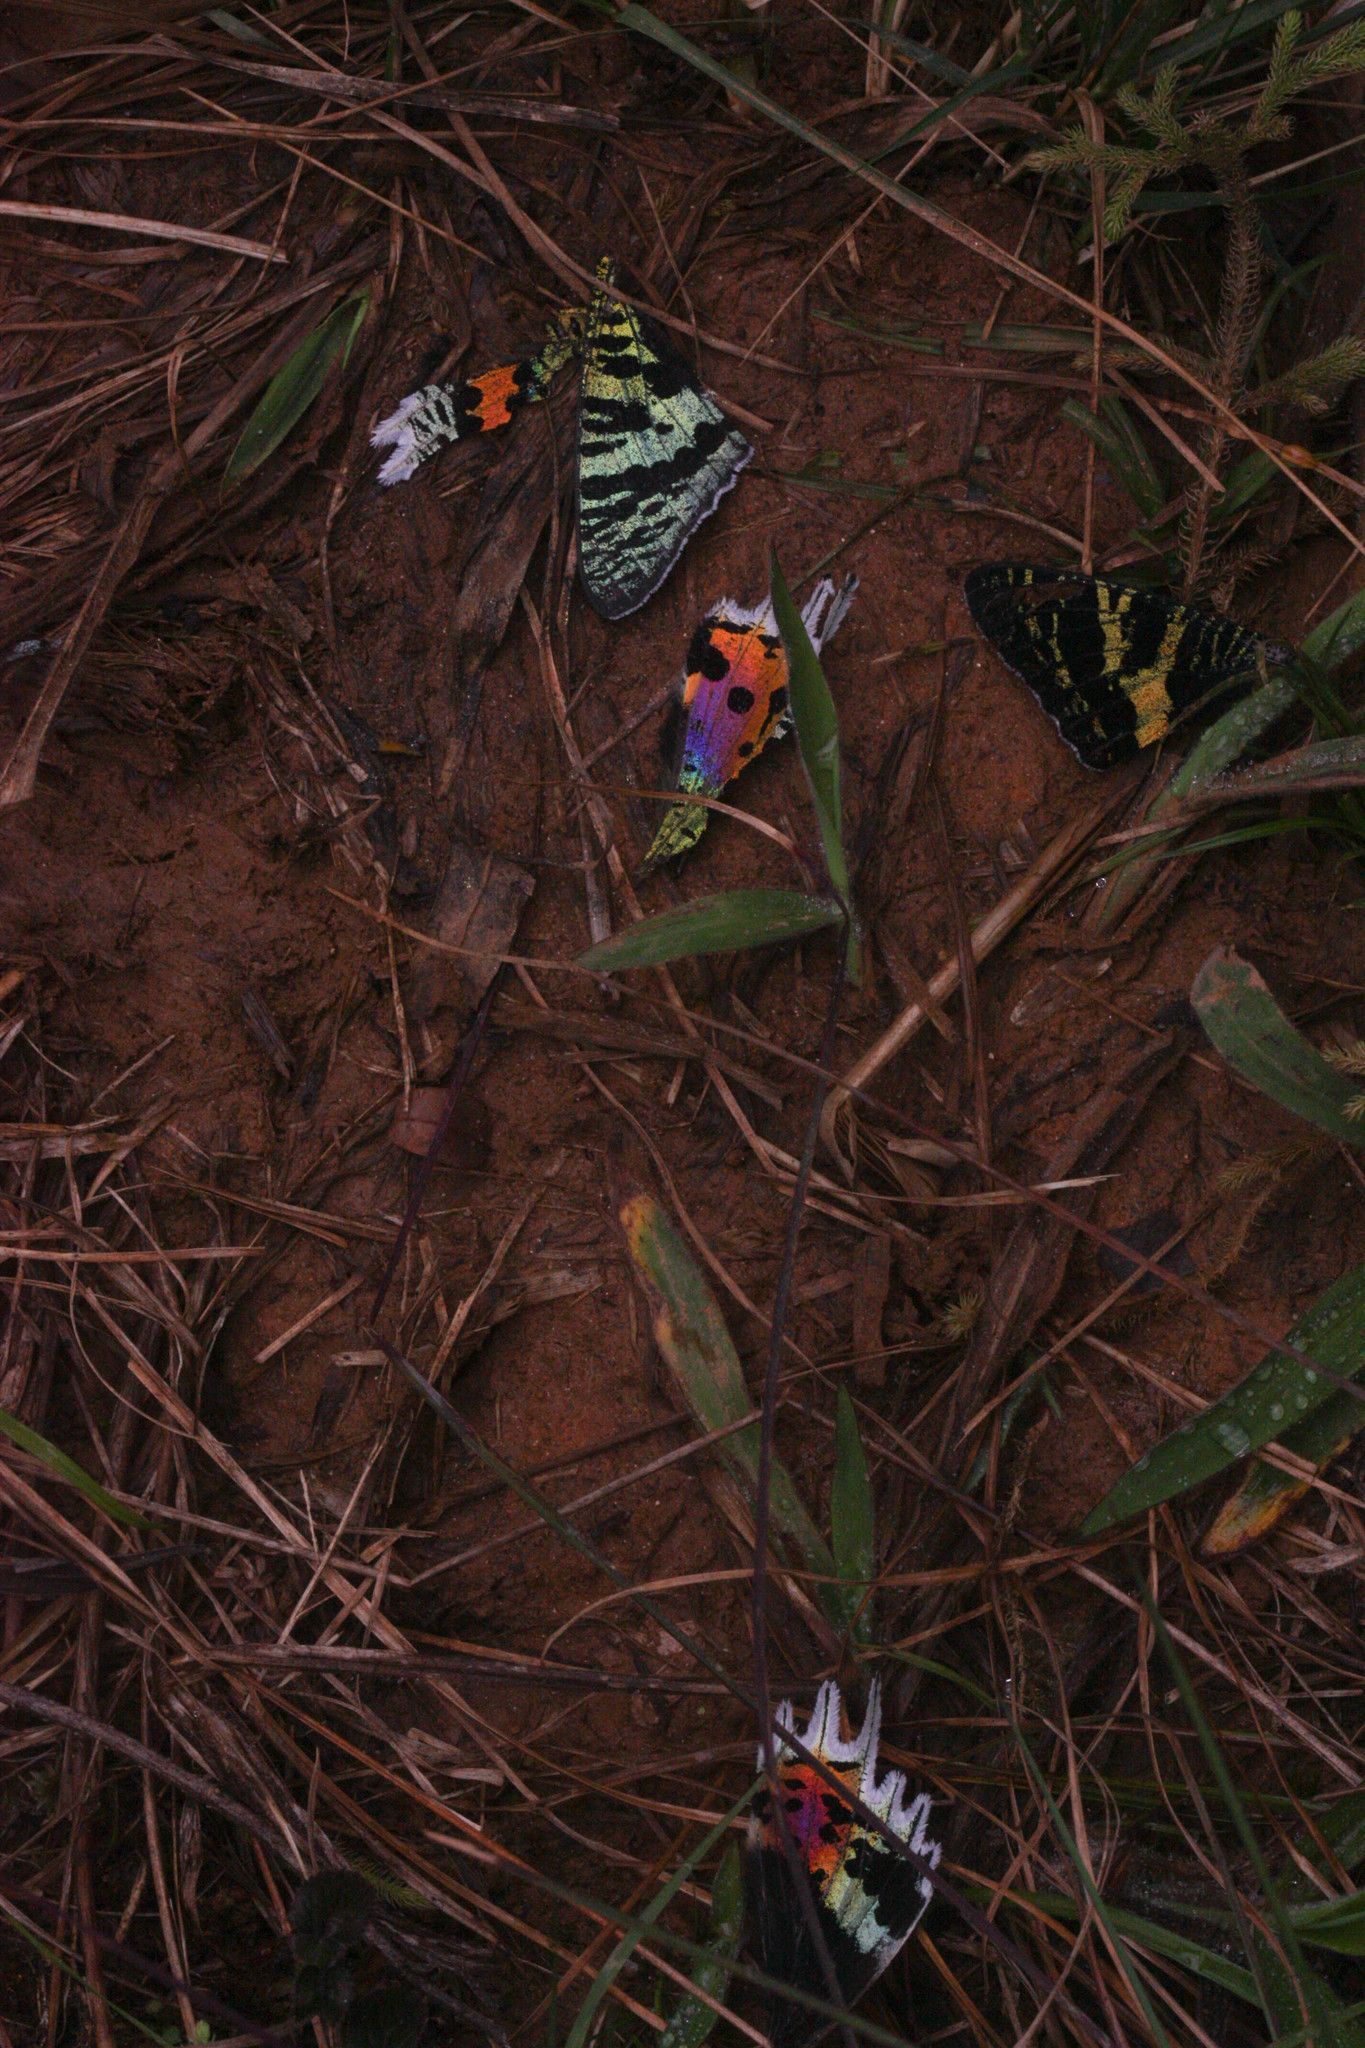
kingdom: Animalia
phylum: Arthropoda
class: Insecta
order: Lepidoptera
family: Uraniidae
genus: Chrysiridia
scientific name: Chrysiridia rhipheus
